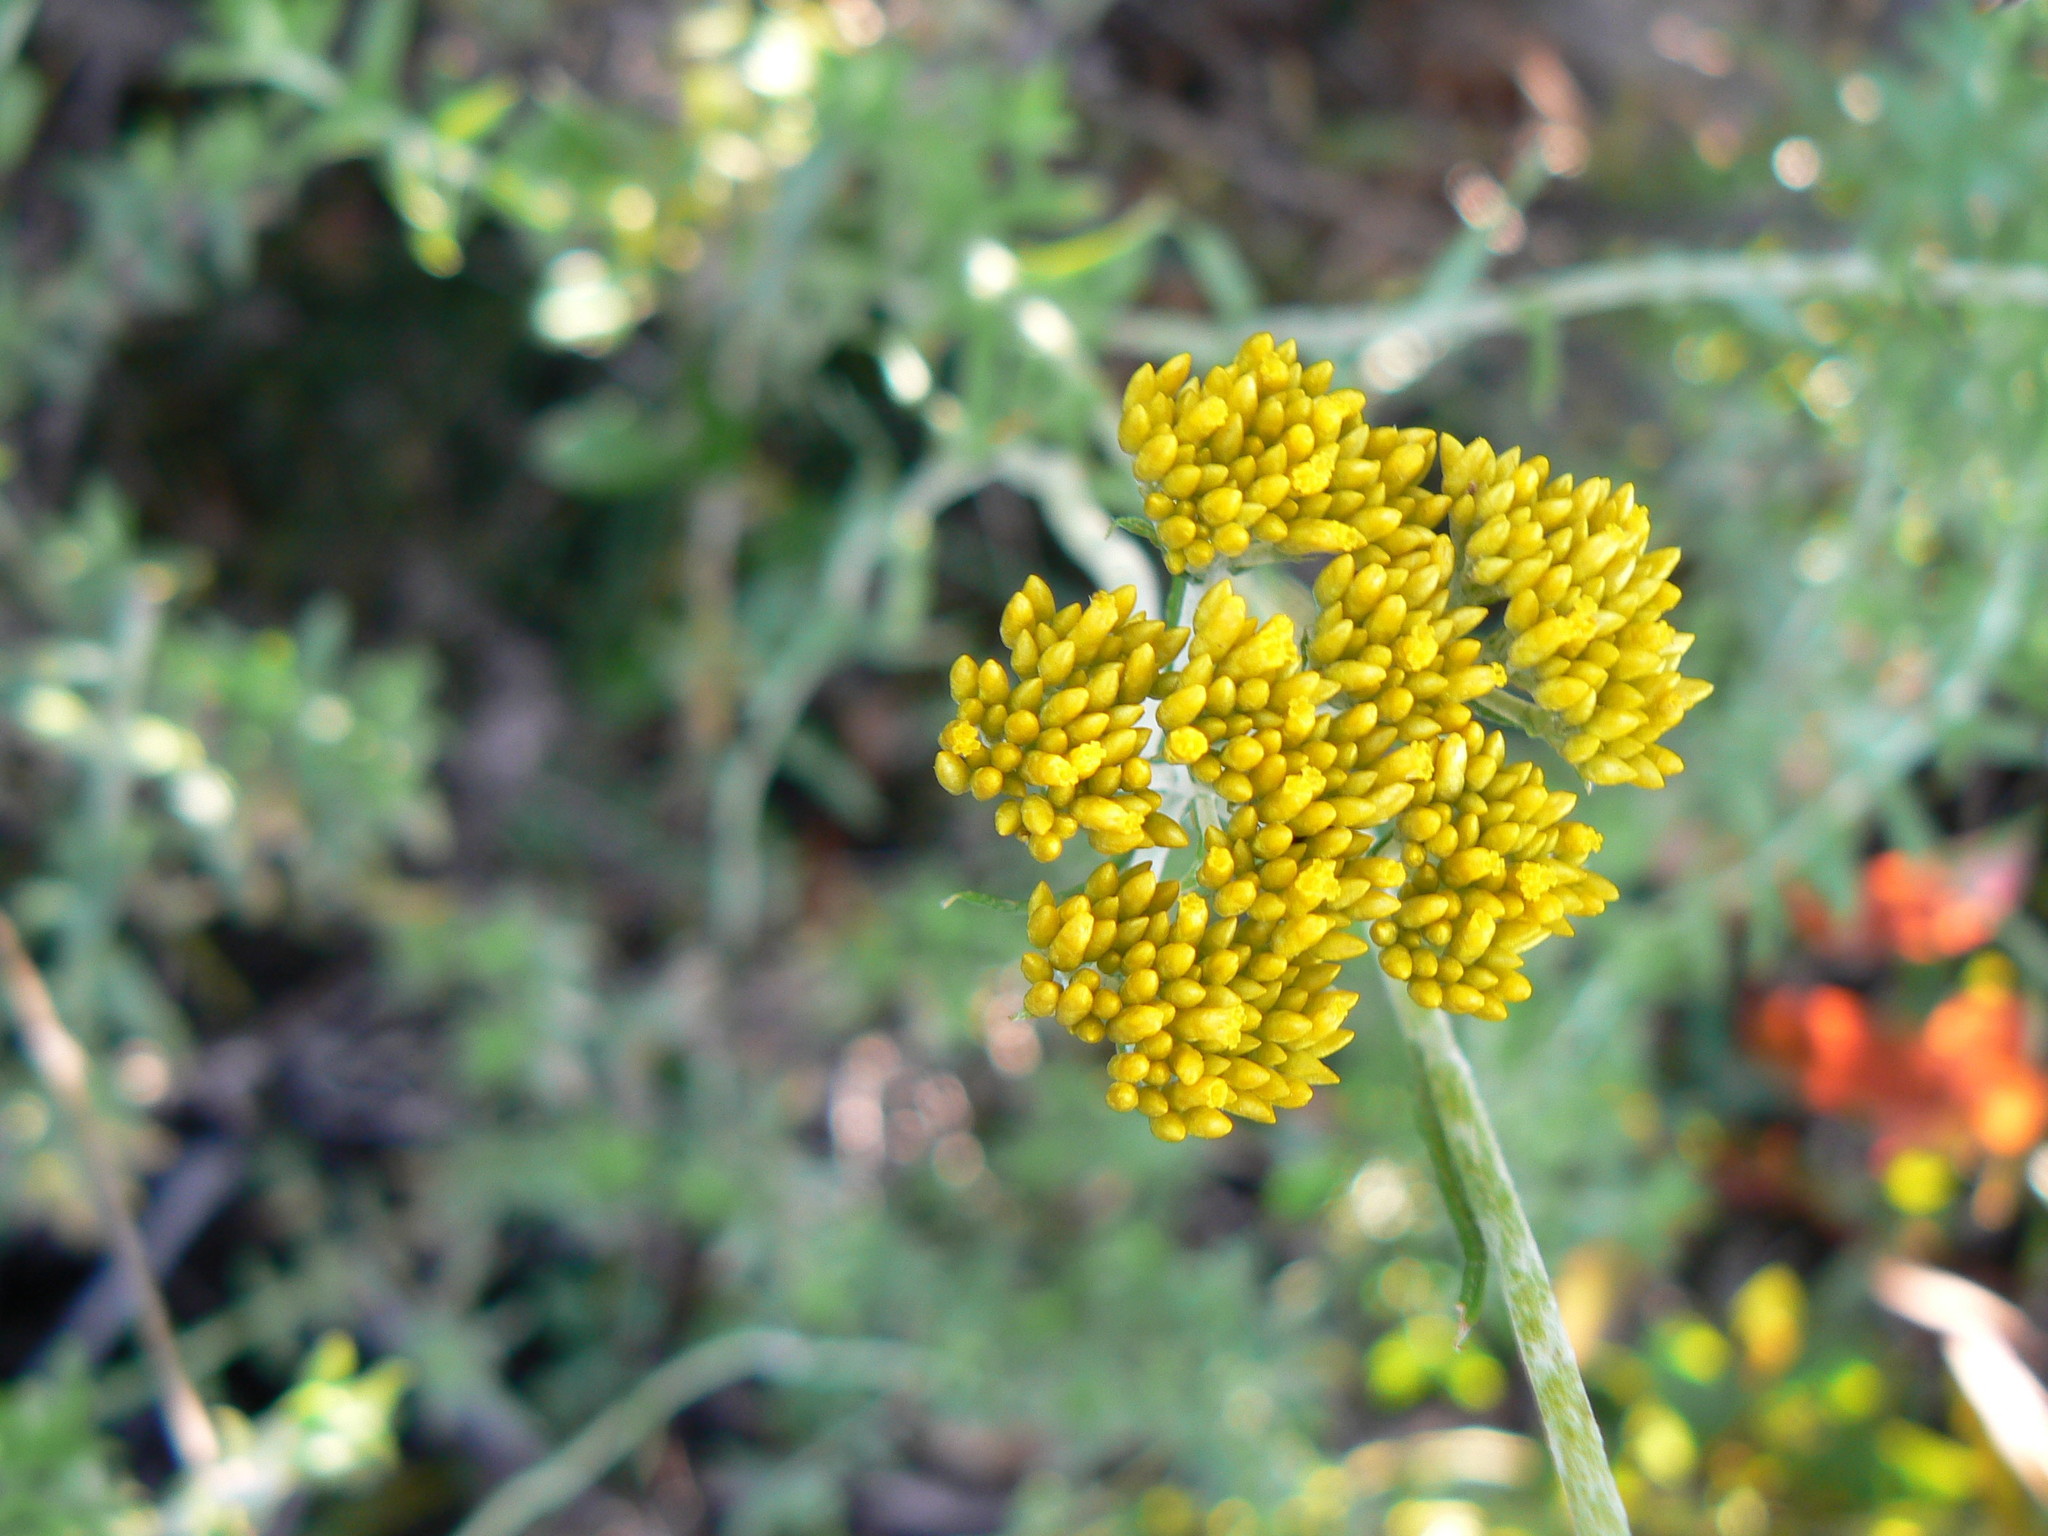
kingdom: Plantae
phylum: Tracheophyta
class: Magnoliopsida
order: Asterales
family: Asteraceae
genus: Helichrysum
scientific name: Helichrysum cymosum
